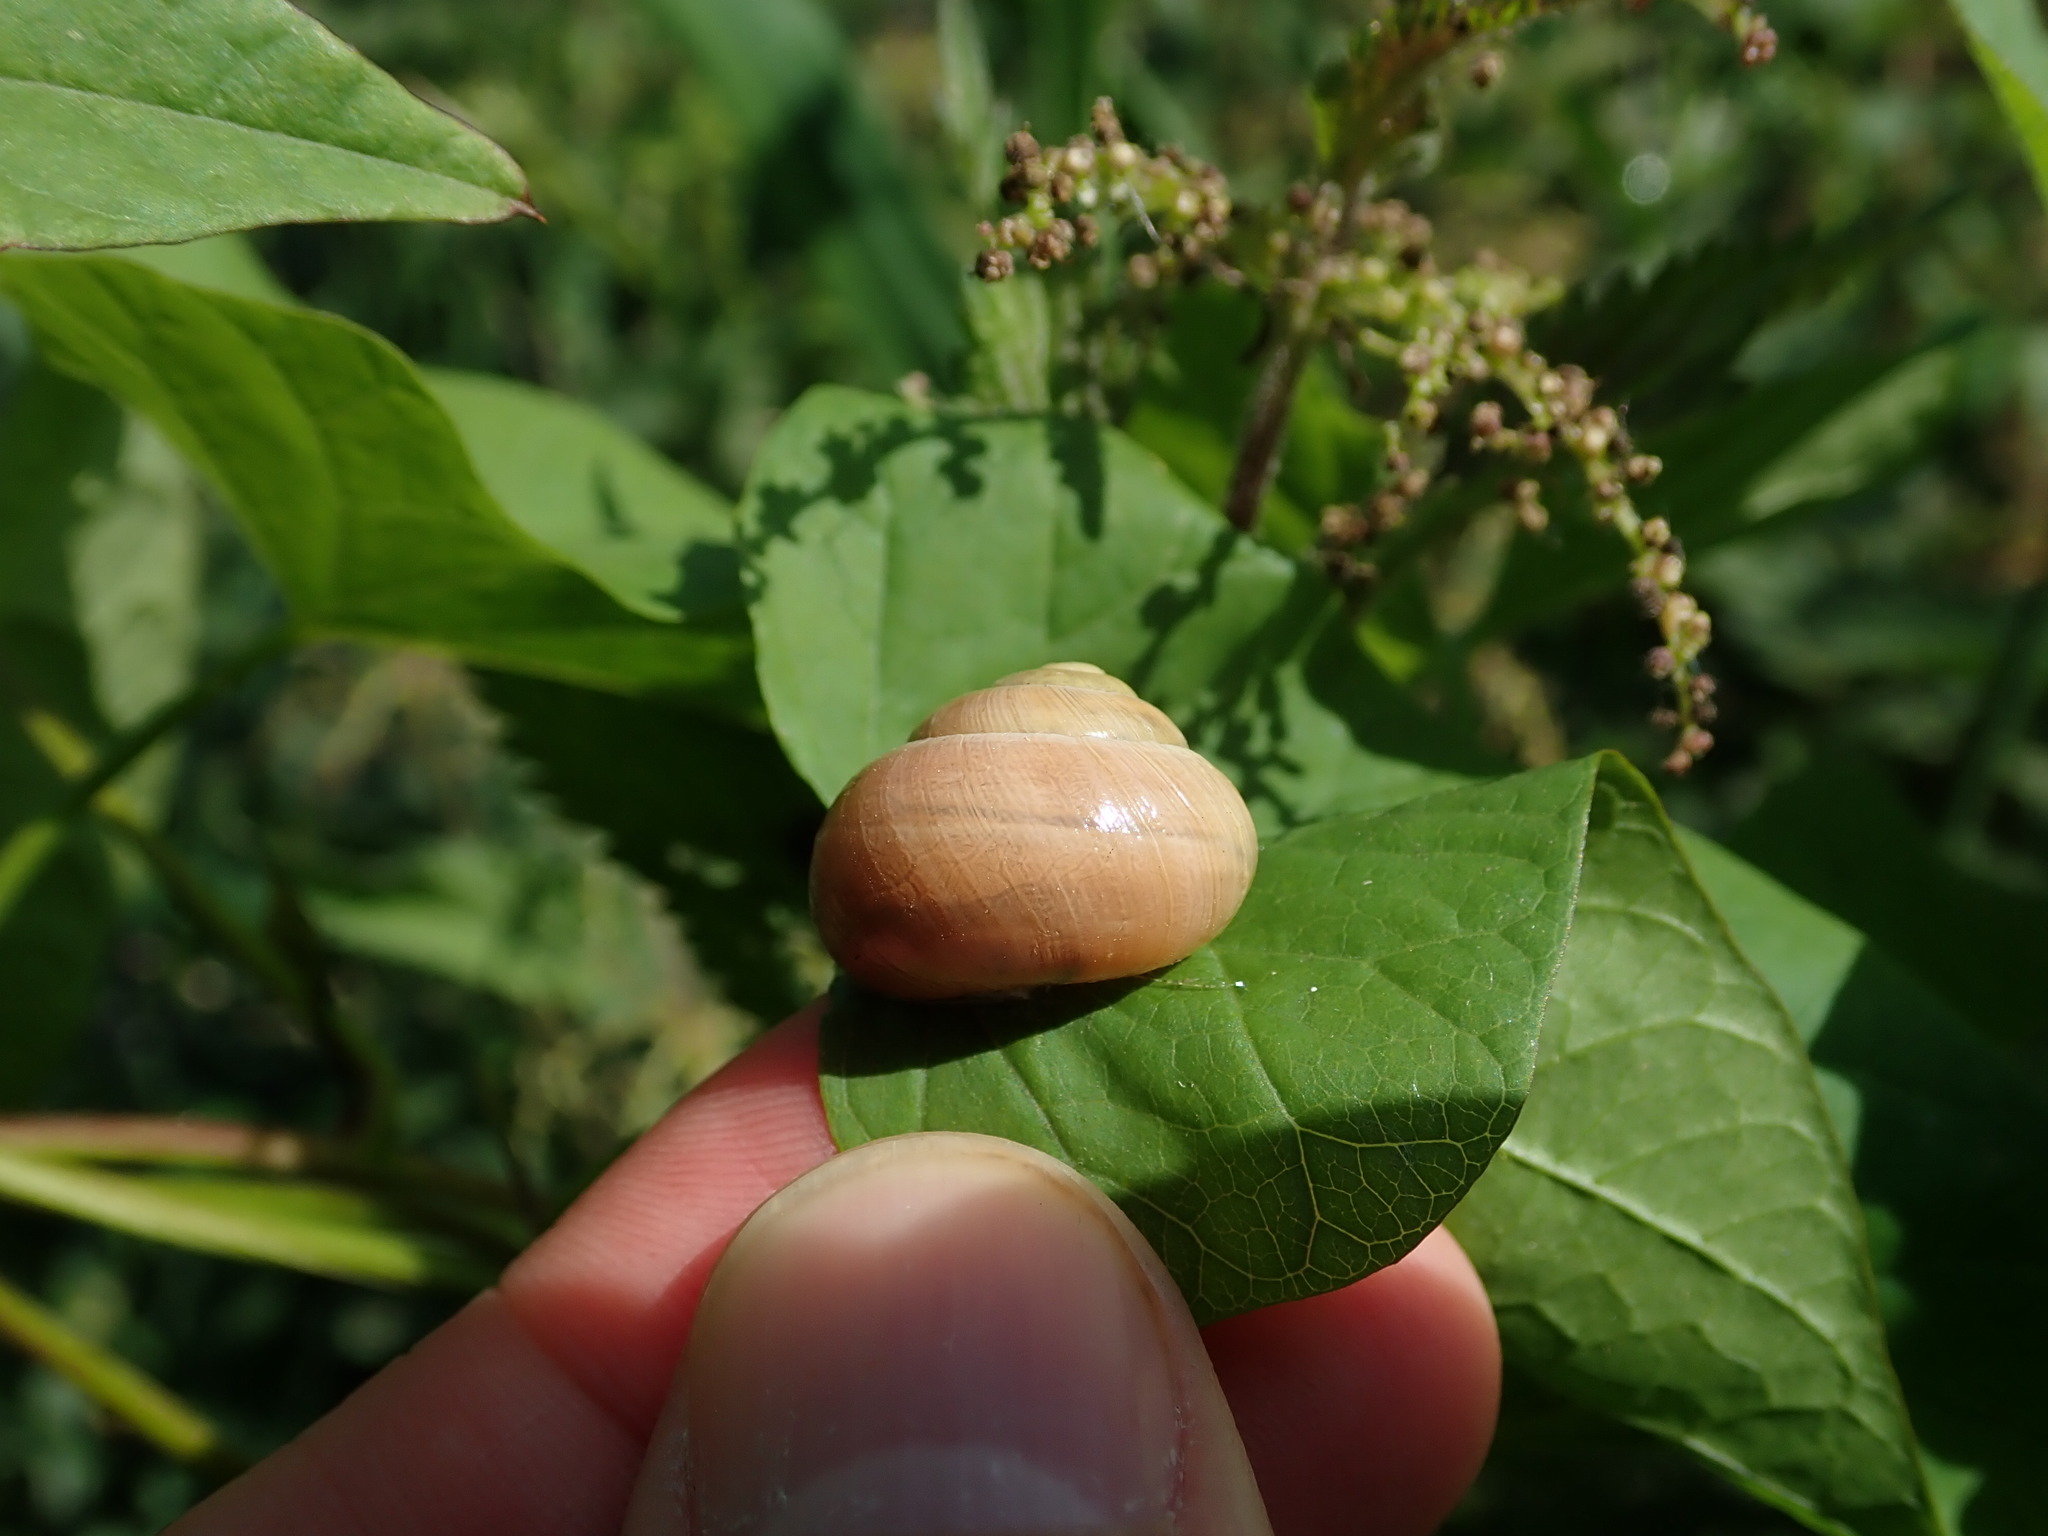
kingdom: Animalia
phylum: Mollusca
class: Gastropoda
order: Stylommatophora
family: Helicidae
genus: Cepaea
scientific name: Cepaea hortensis
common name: White-lip gardensnail
